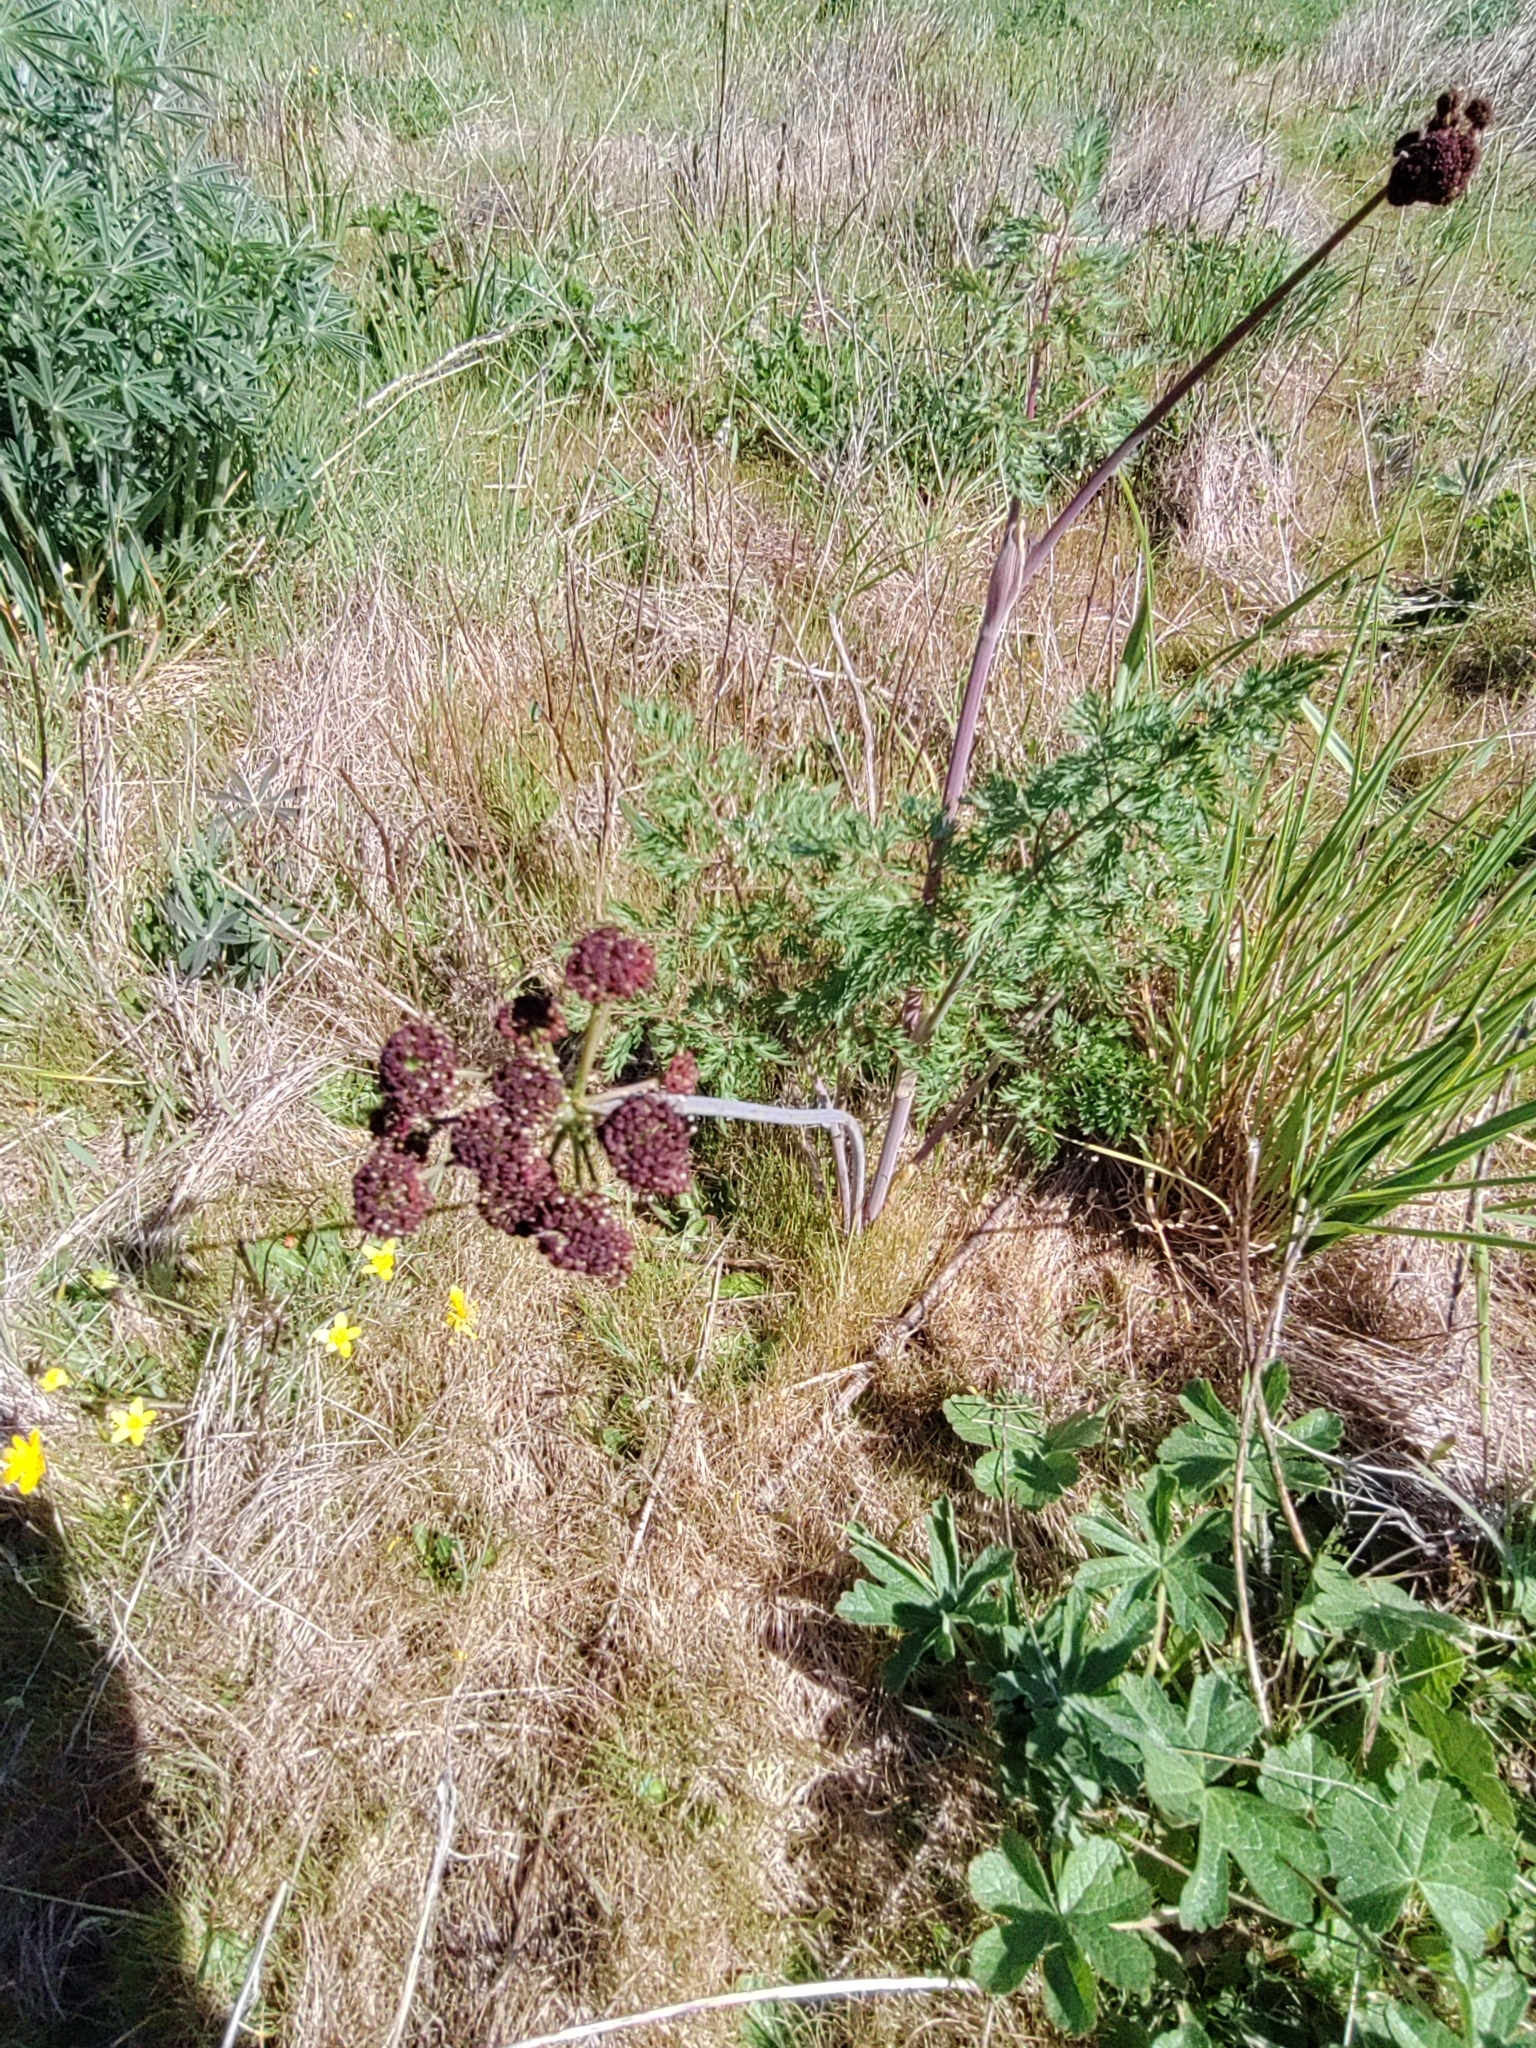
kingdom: Plantae
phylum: Tracheophyta
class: Magnoliopsida
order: Apiales
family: Apiaceae
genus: Lomatium
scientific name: Lomatium dissectum
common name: Lomatium
